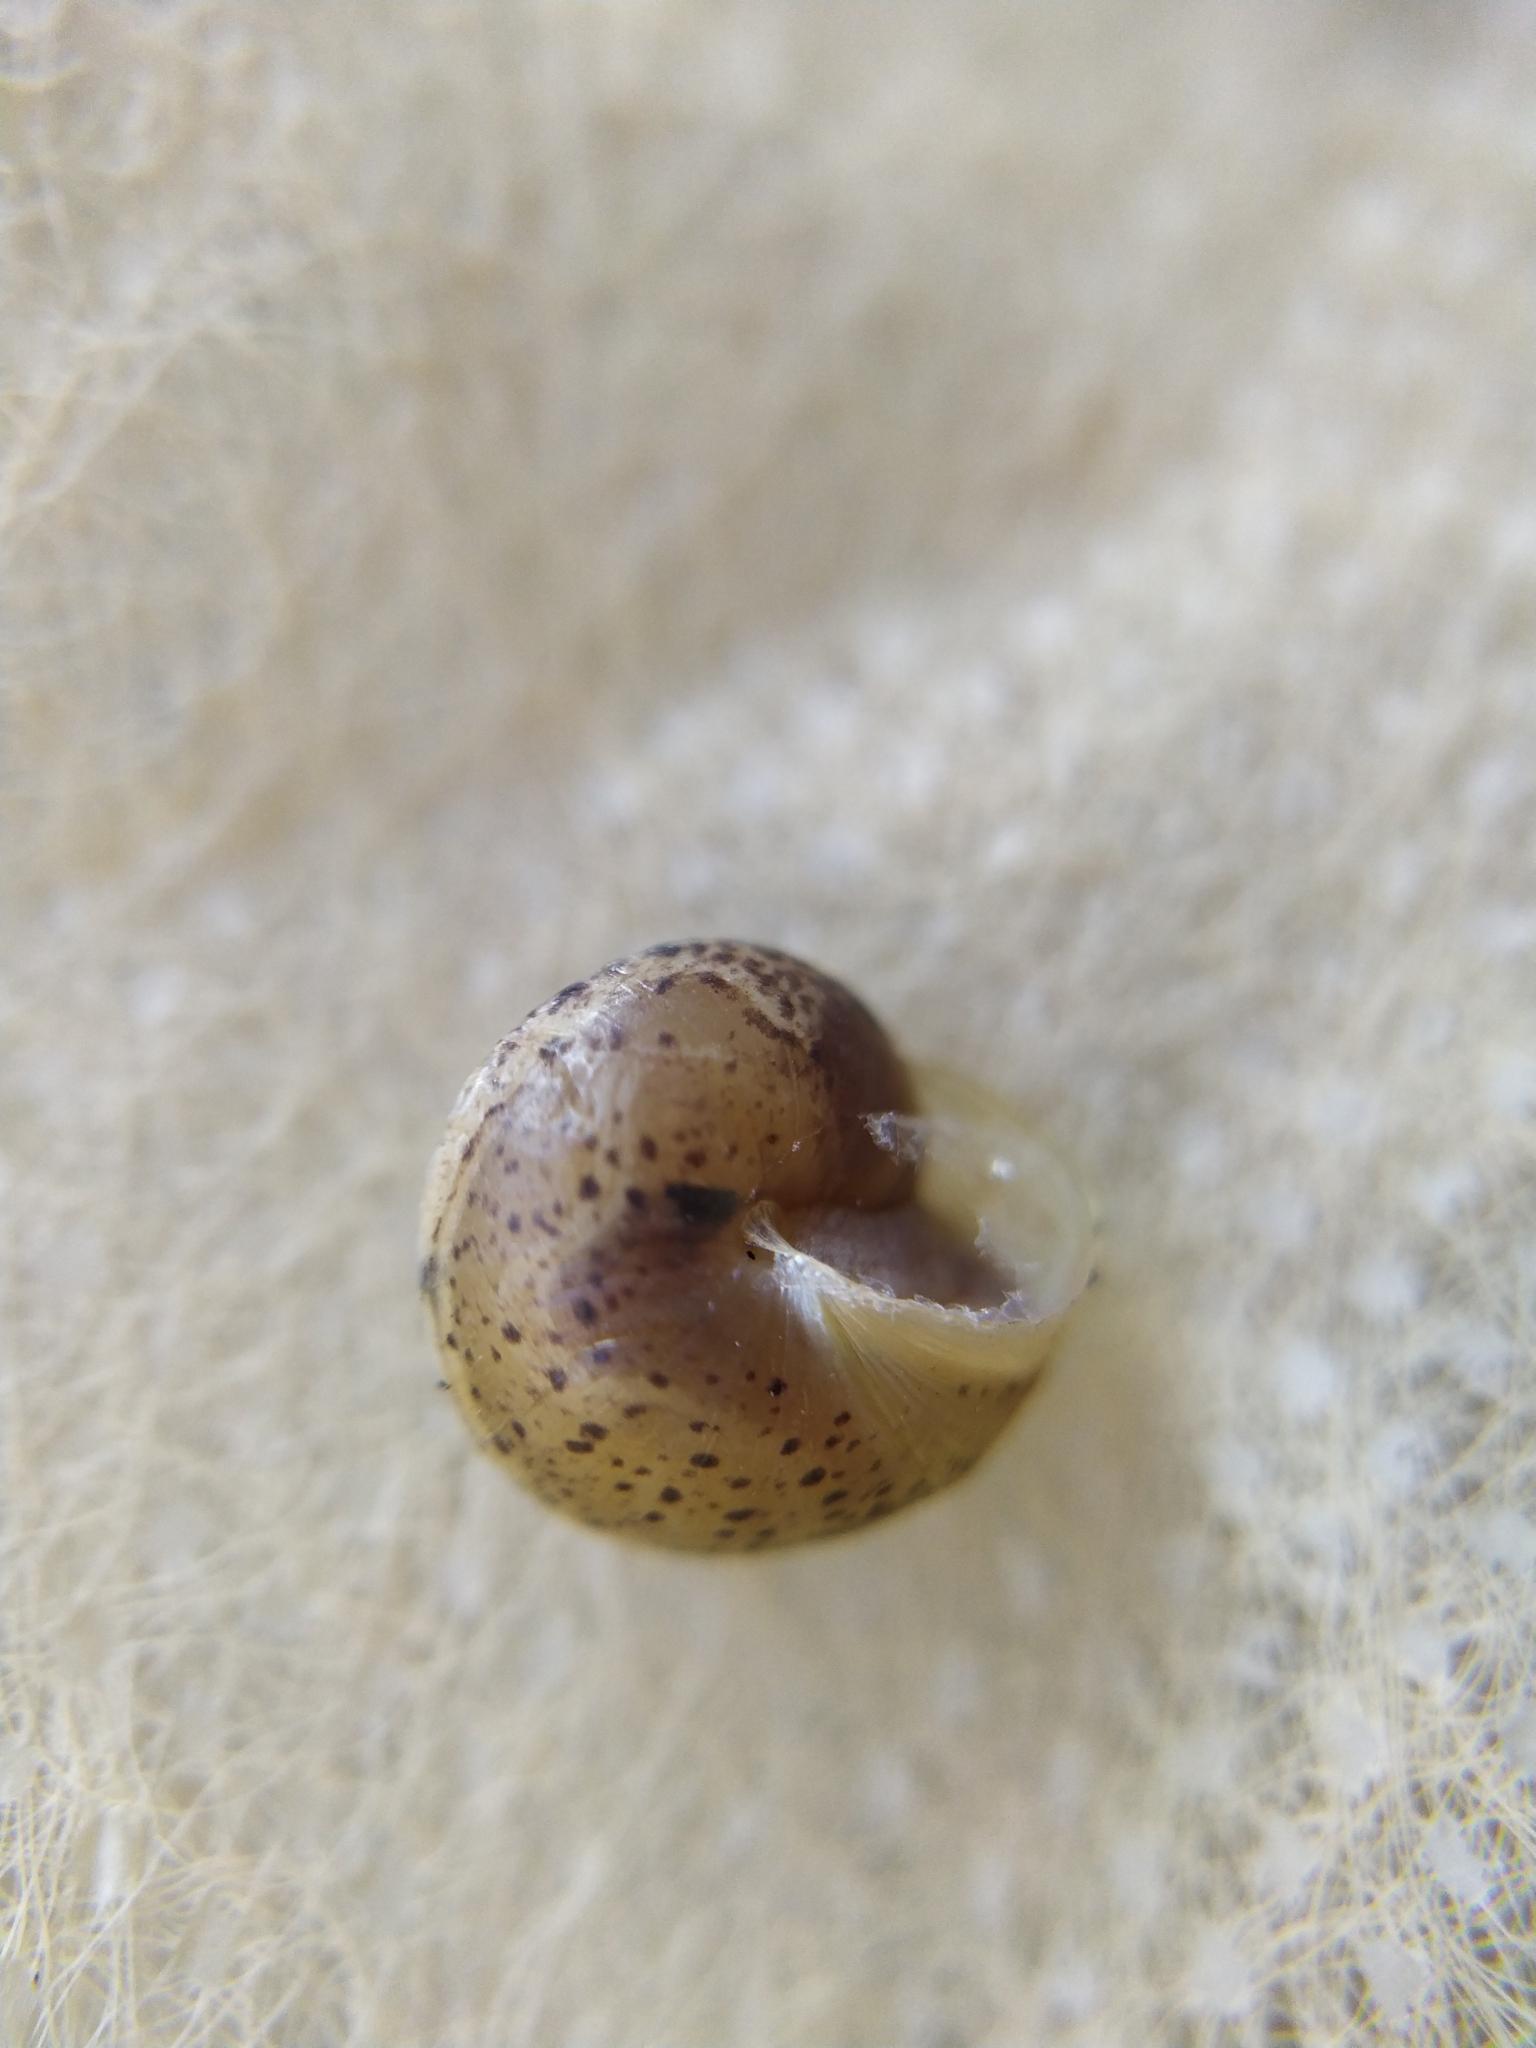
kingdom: Animalia
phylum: Mollusca
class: Gastropoda
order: Stylommatophora
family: Hygromiidae
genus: Hygromia
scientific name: Hygromia cinctella
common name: Girdled snail
